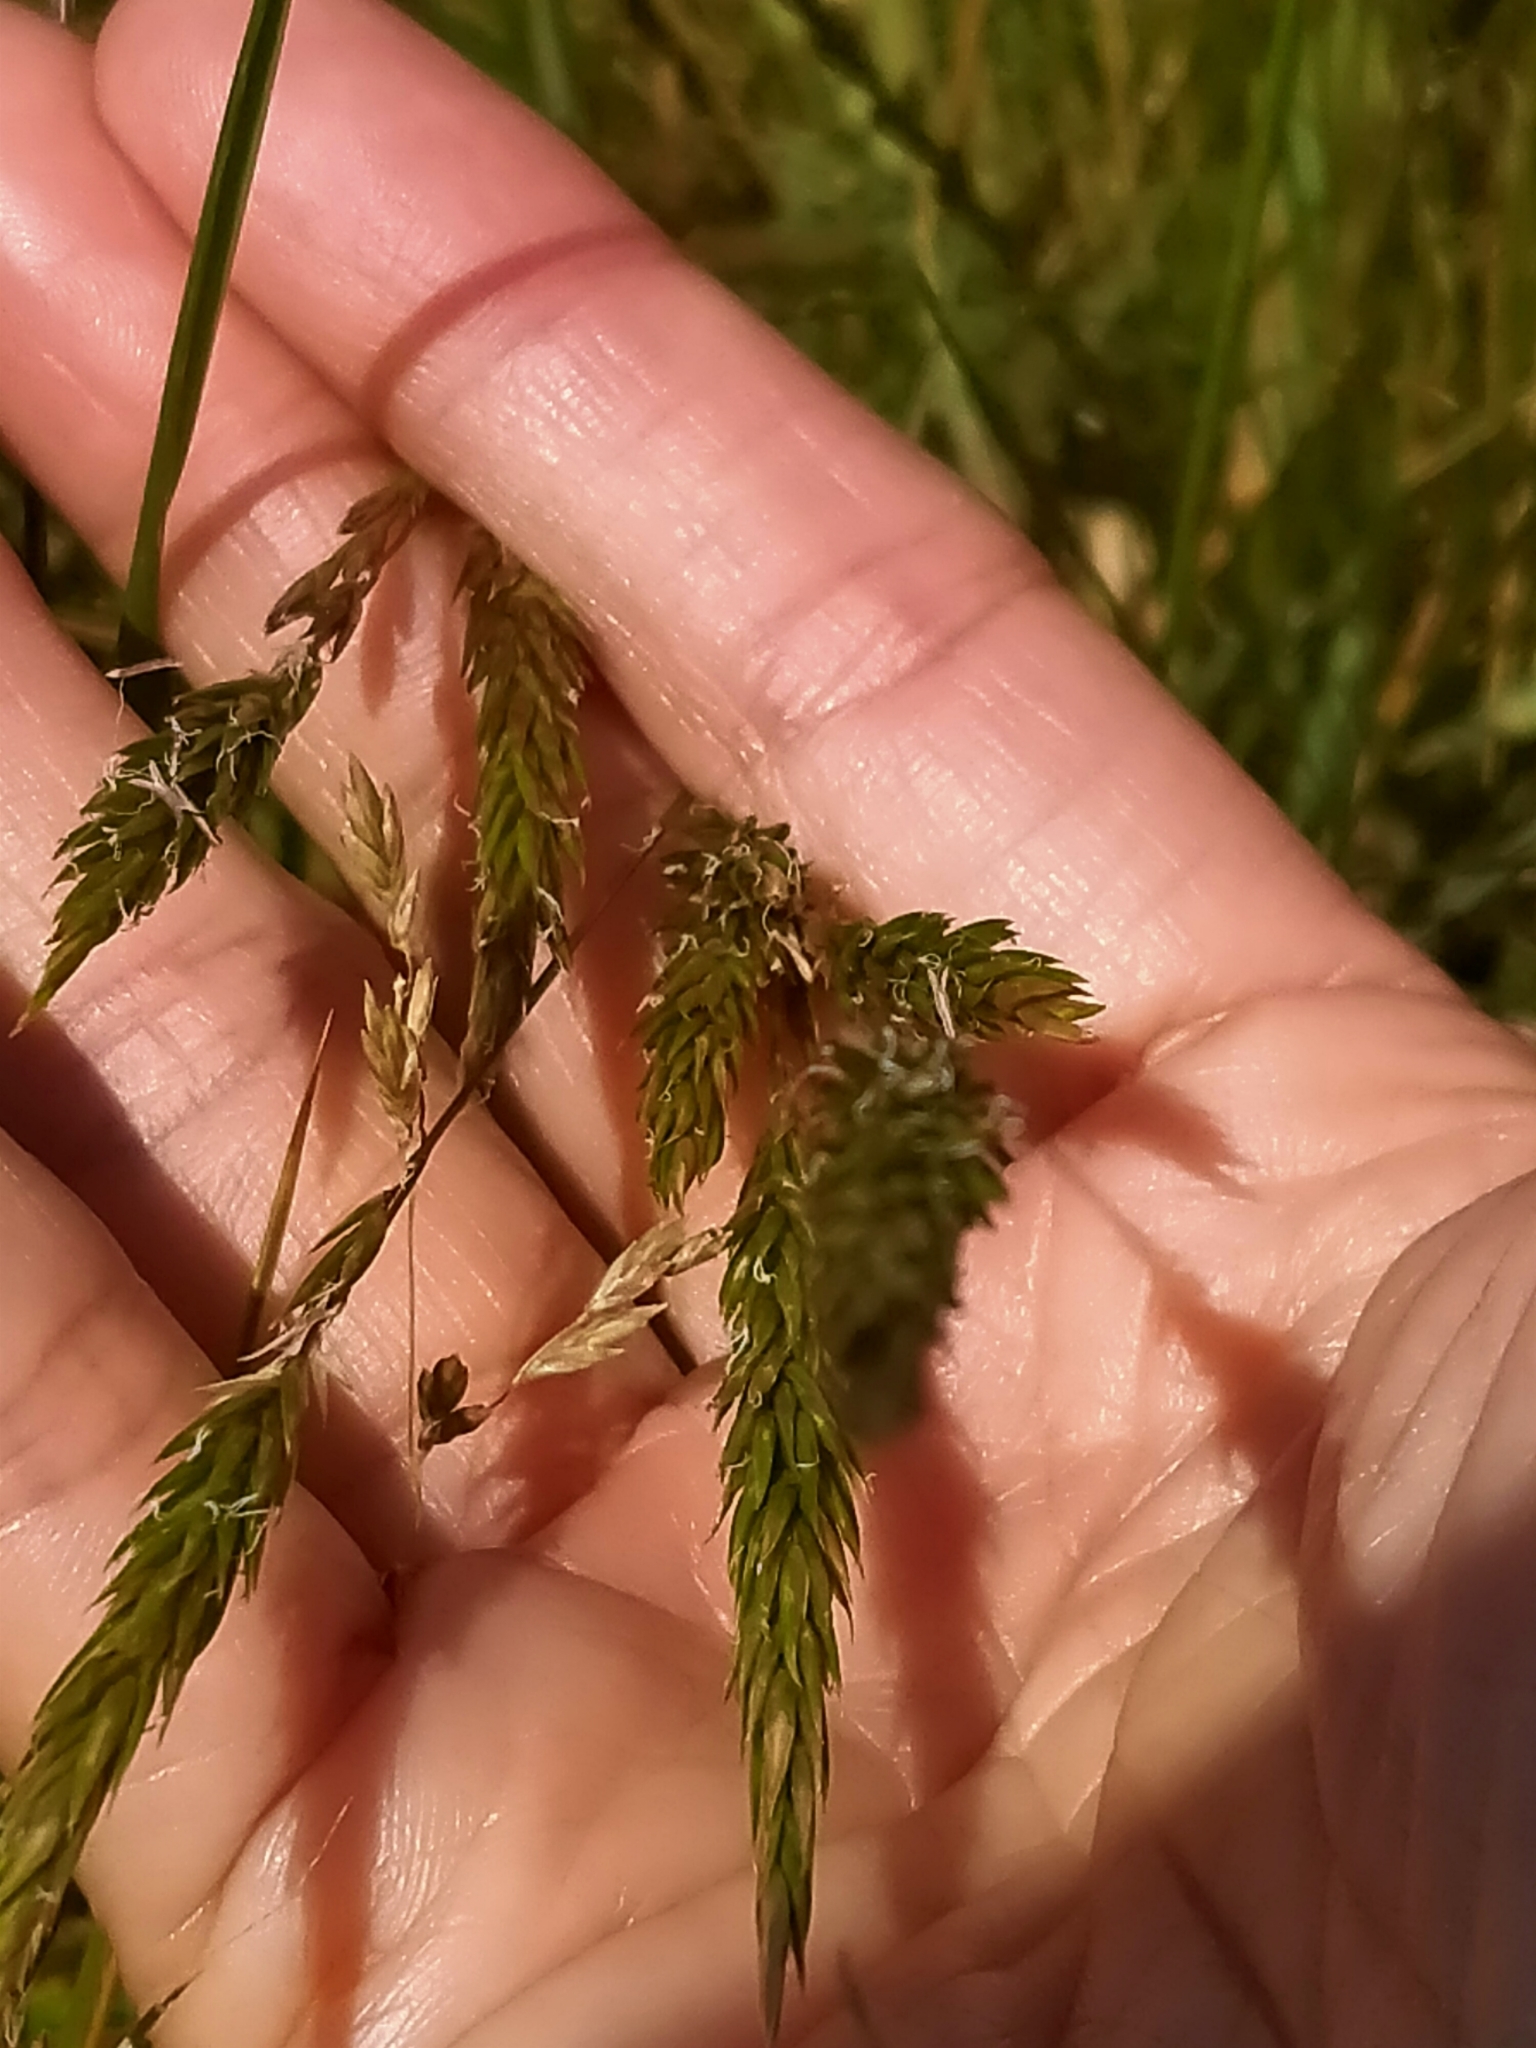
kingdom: Plantae
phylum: Tracheophyta
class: Liliopsida
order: Poales
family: Poaceae
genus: Anthoxanthum
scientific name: Anthoxanthum odoratum
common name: Sweet vernalgrass
